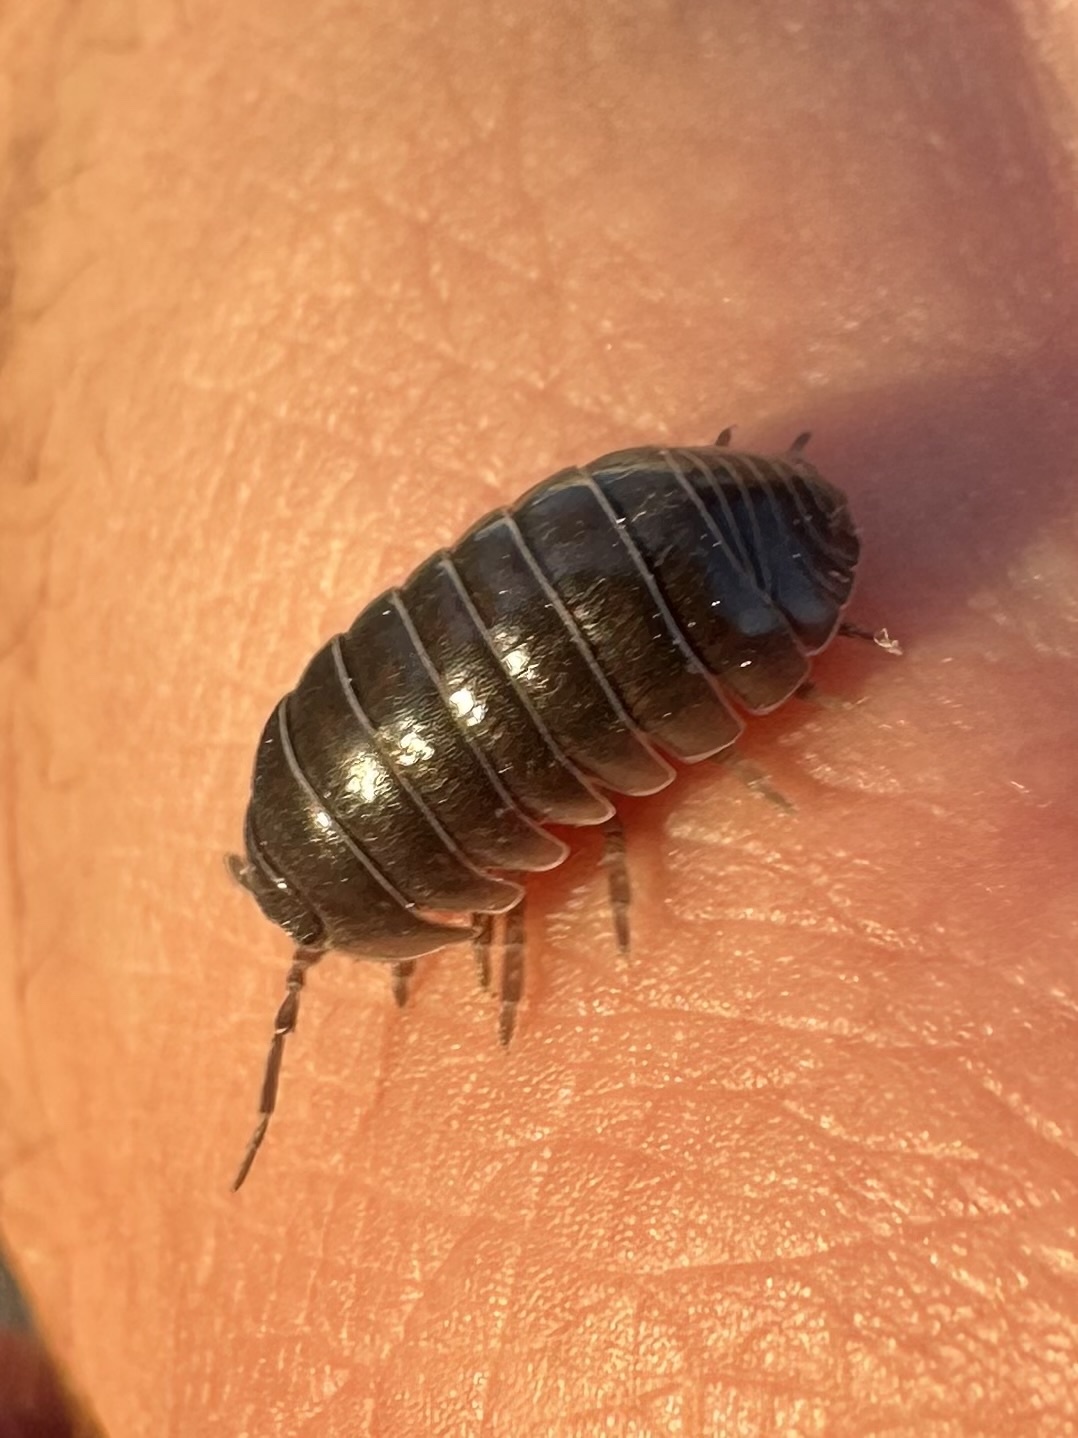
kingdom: Animalia
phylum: Arthropoda
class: Malacostraca
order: Isopoda
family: Armadillidiidae
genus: Armadillidium
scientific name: Armadillidium vulgare
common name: Common pill woodlouse
